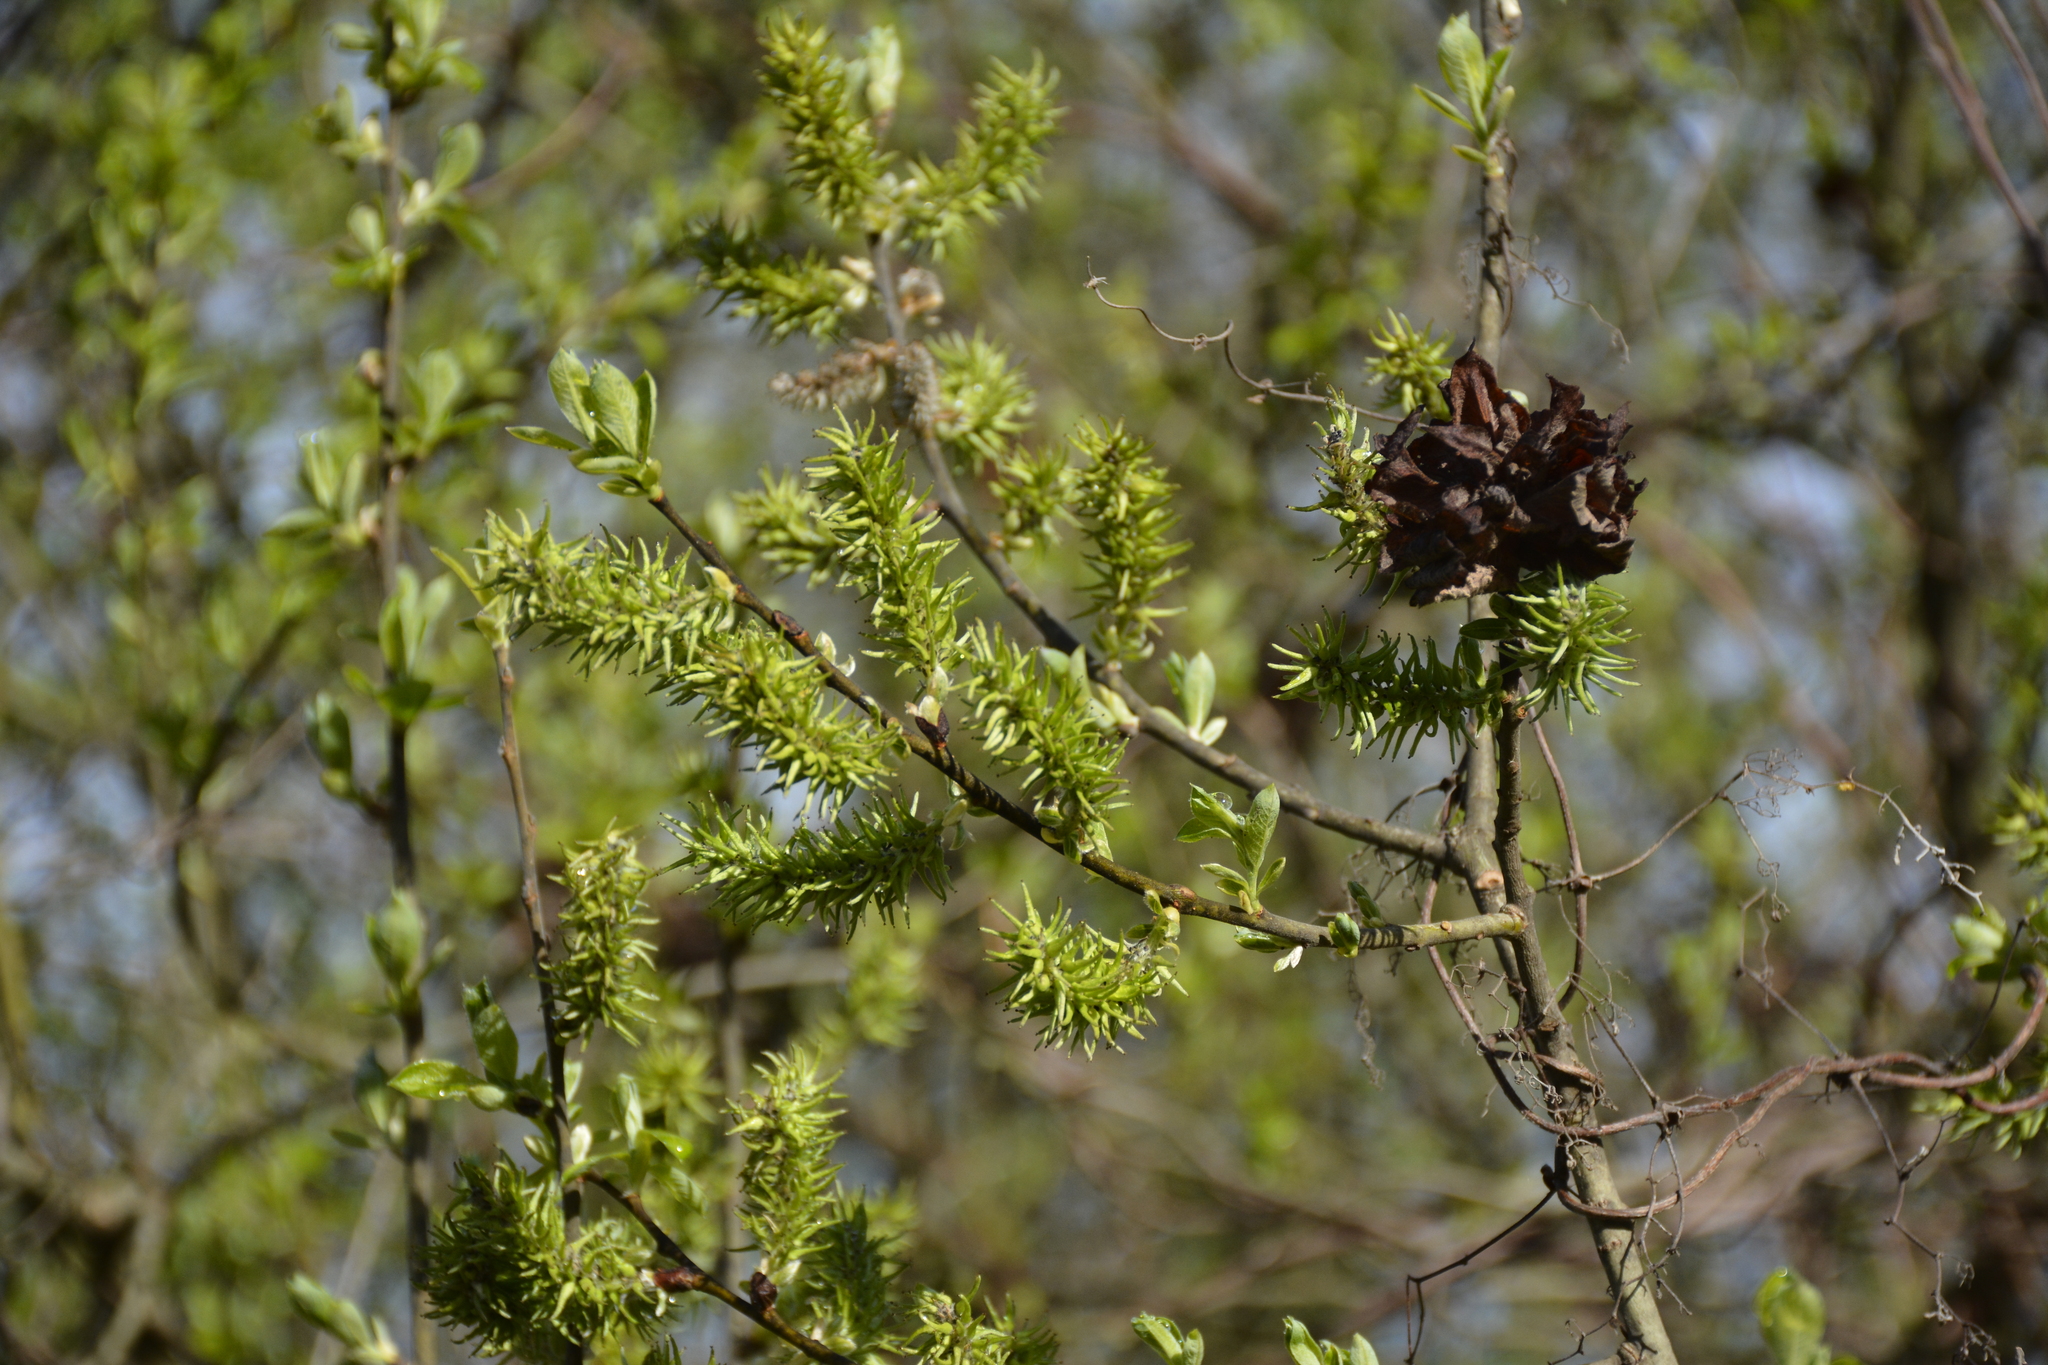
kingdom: Plantae
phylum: Tracheophyta
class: Magnoliopsida
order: Malpighiales
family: Salicaceae
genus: Salix
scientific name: Salix cinerea
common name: Common sallow
